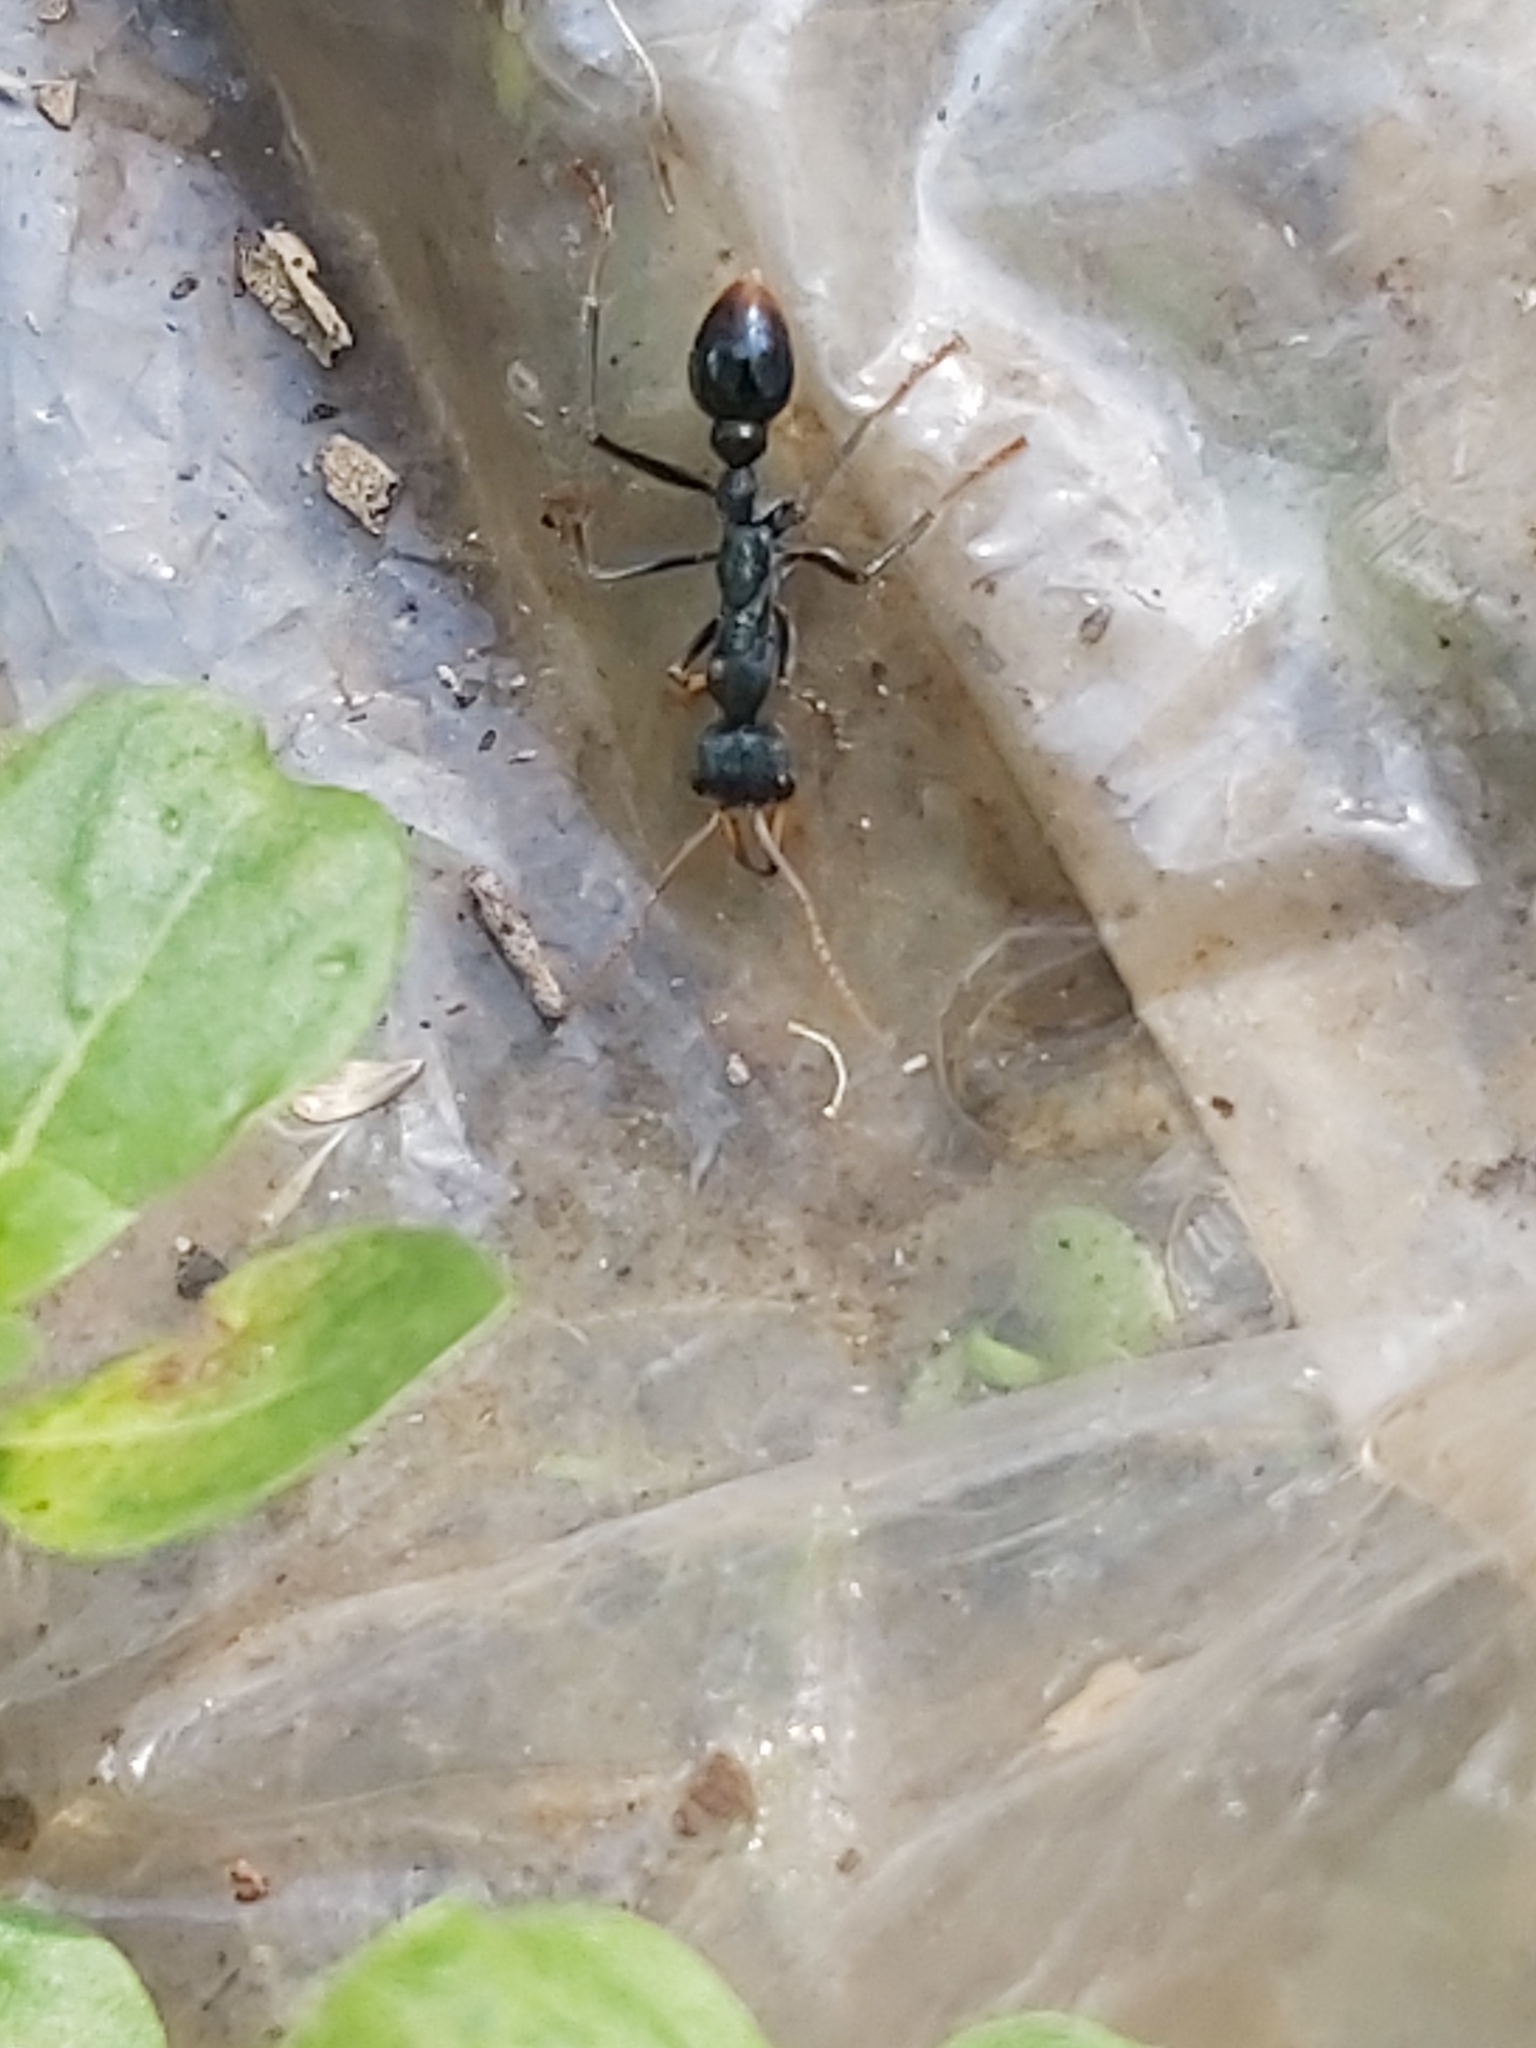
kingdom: Animalia
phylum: Arthropoda
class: Insecta
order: Hymenoptera
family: Formicidae
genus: Myrmecia
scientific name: Myrmecia tarsata
